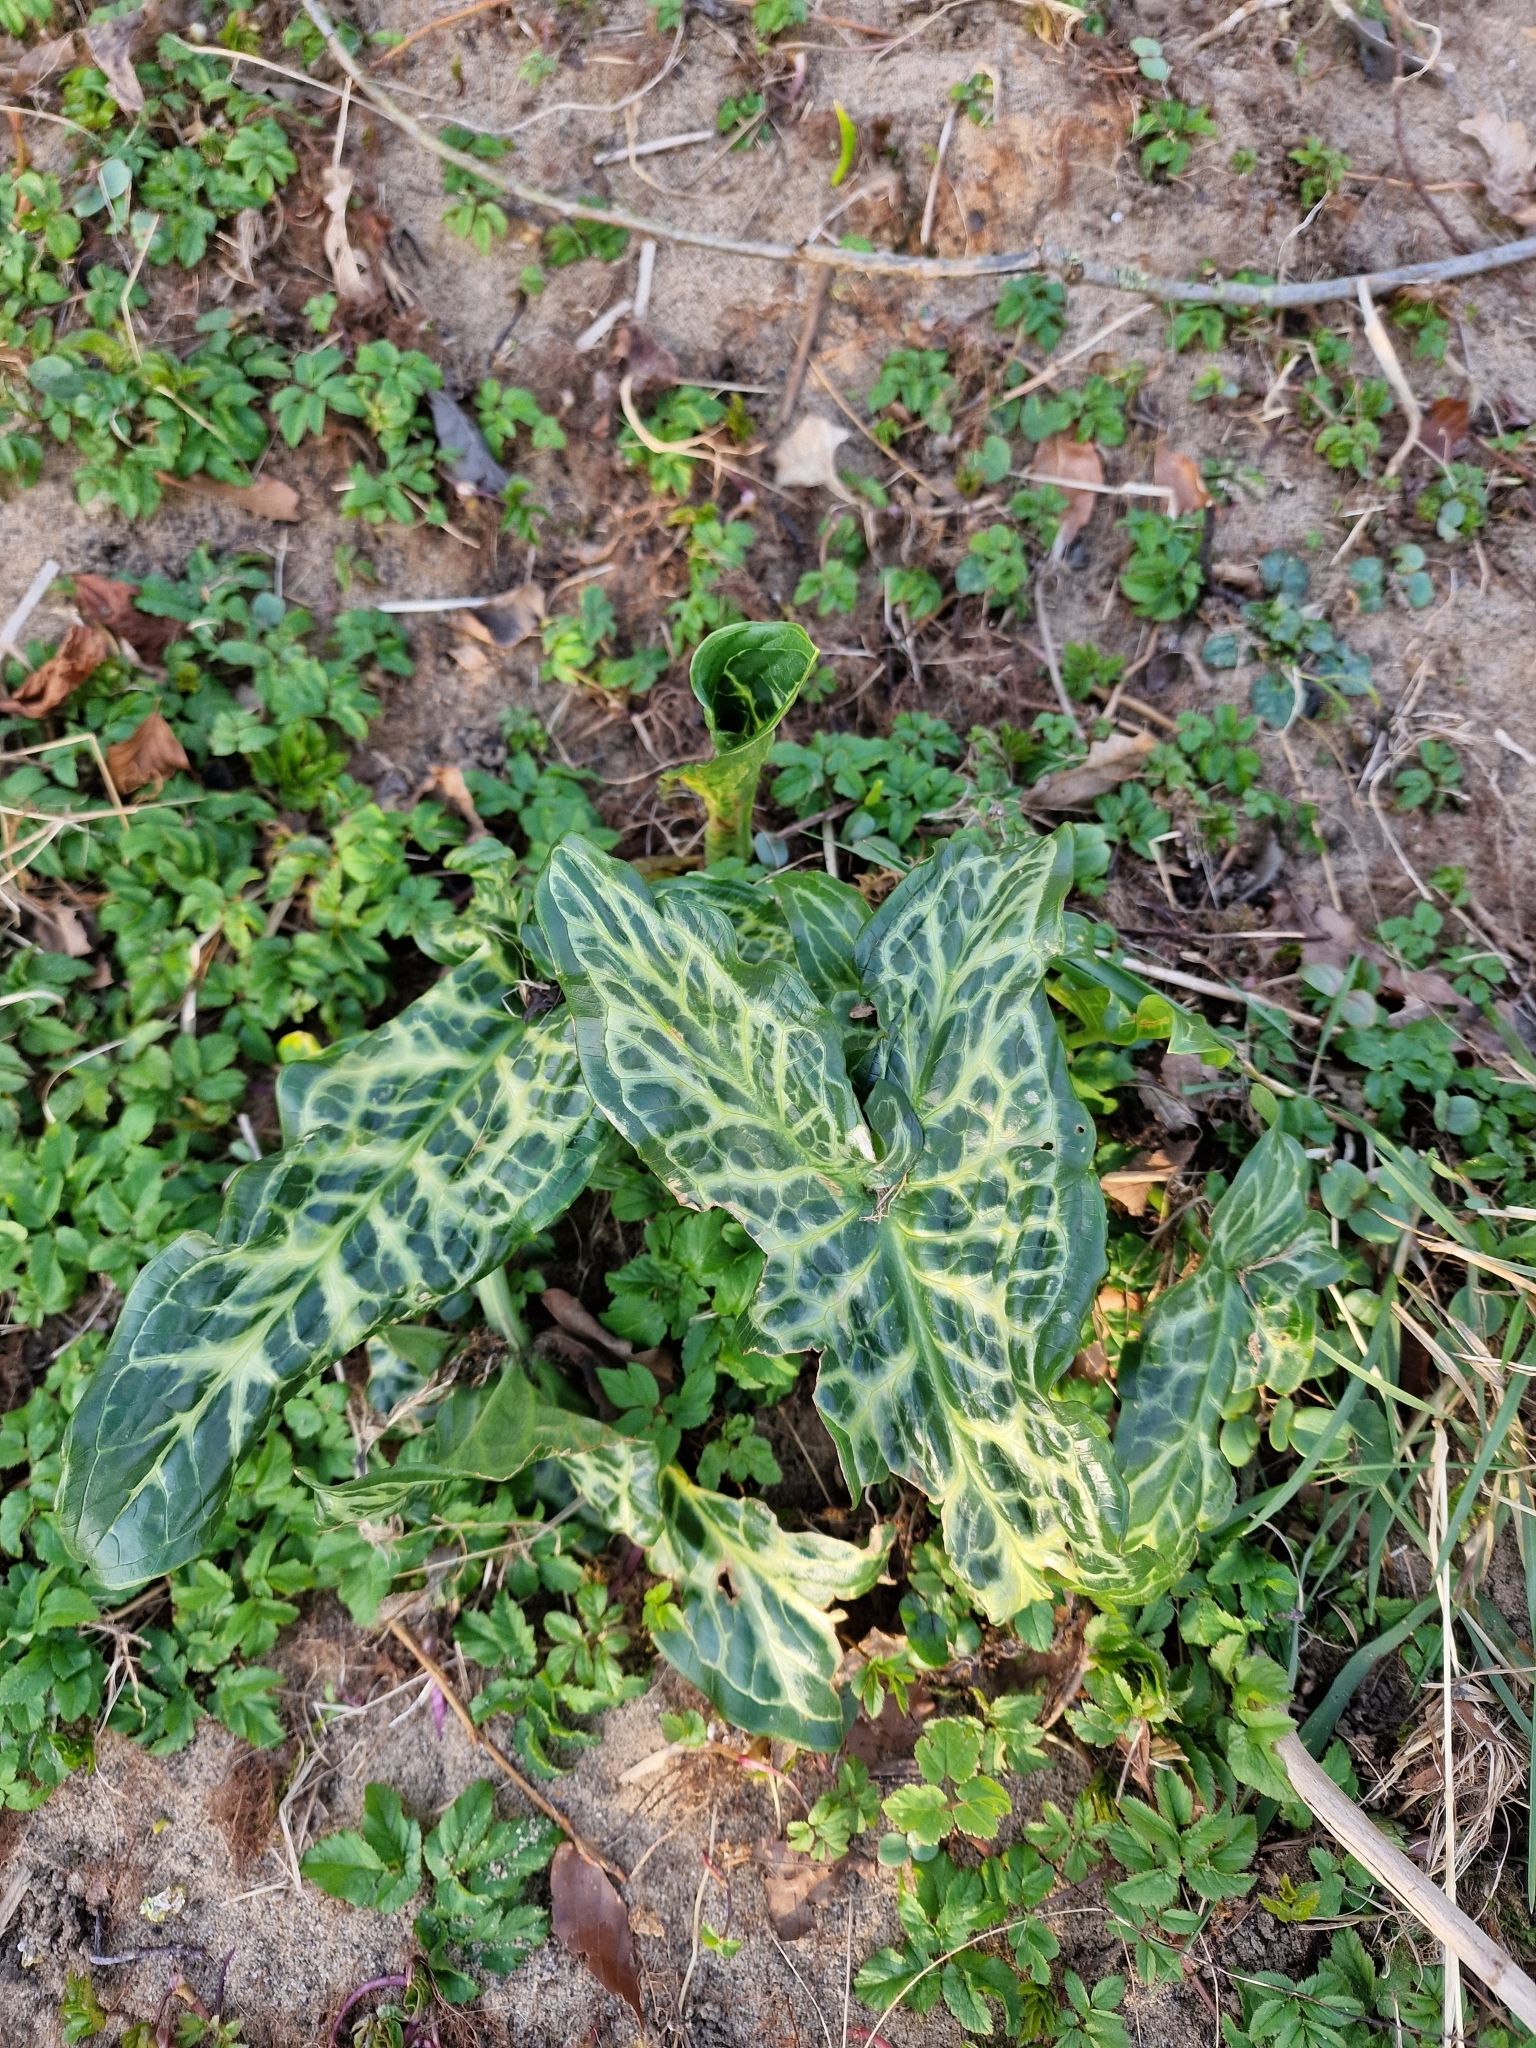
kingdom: Plantae
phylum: Tracheophyta
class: Liliopsida
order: Alismatales
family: Araceae
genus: Arum
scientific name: Arum italicum
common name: Italian lords-and-ladies
